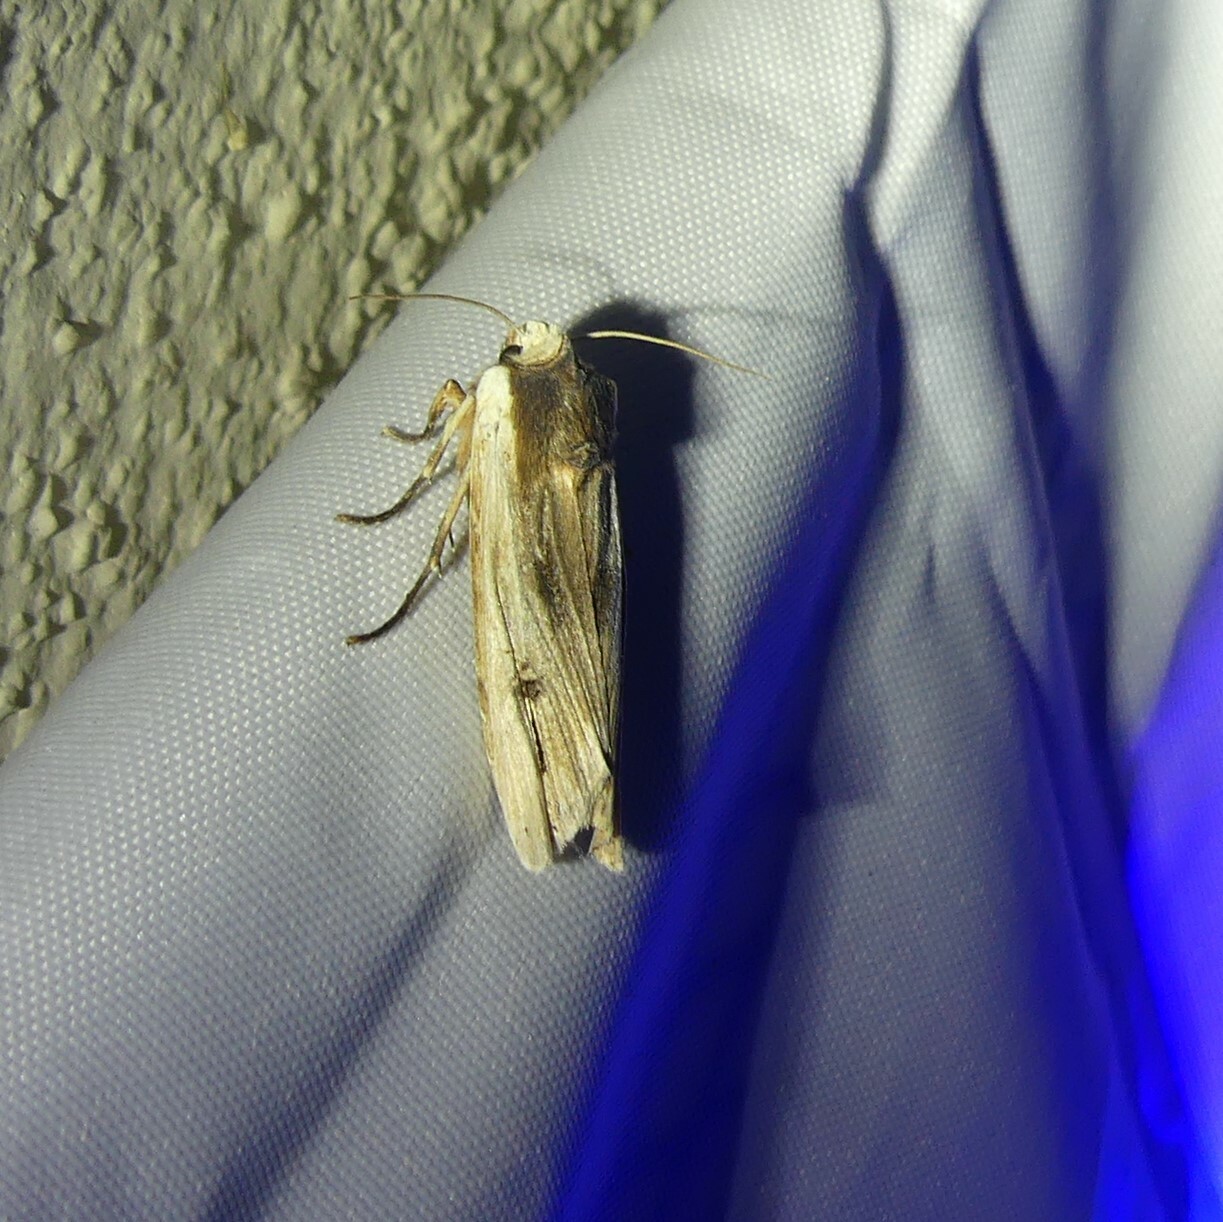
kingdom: Animalia
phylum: Arthropoda
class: Insecta
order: Lepidoptera
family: Noctuidae
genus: Xylena
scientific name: Xylena vetusta
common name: Red sword-grass
